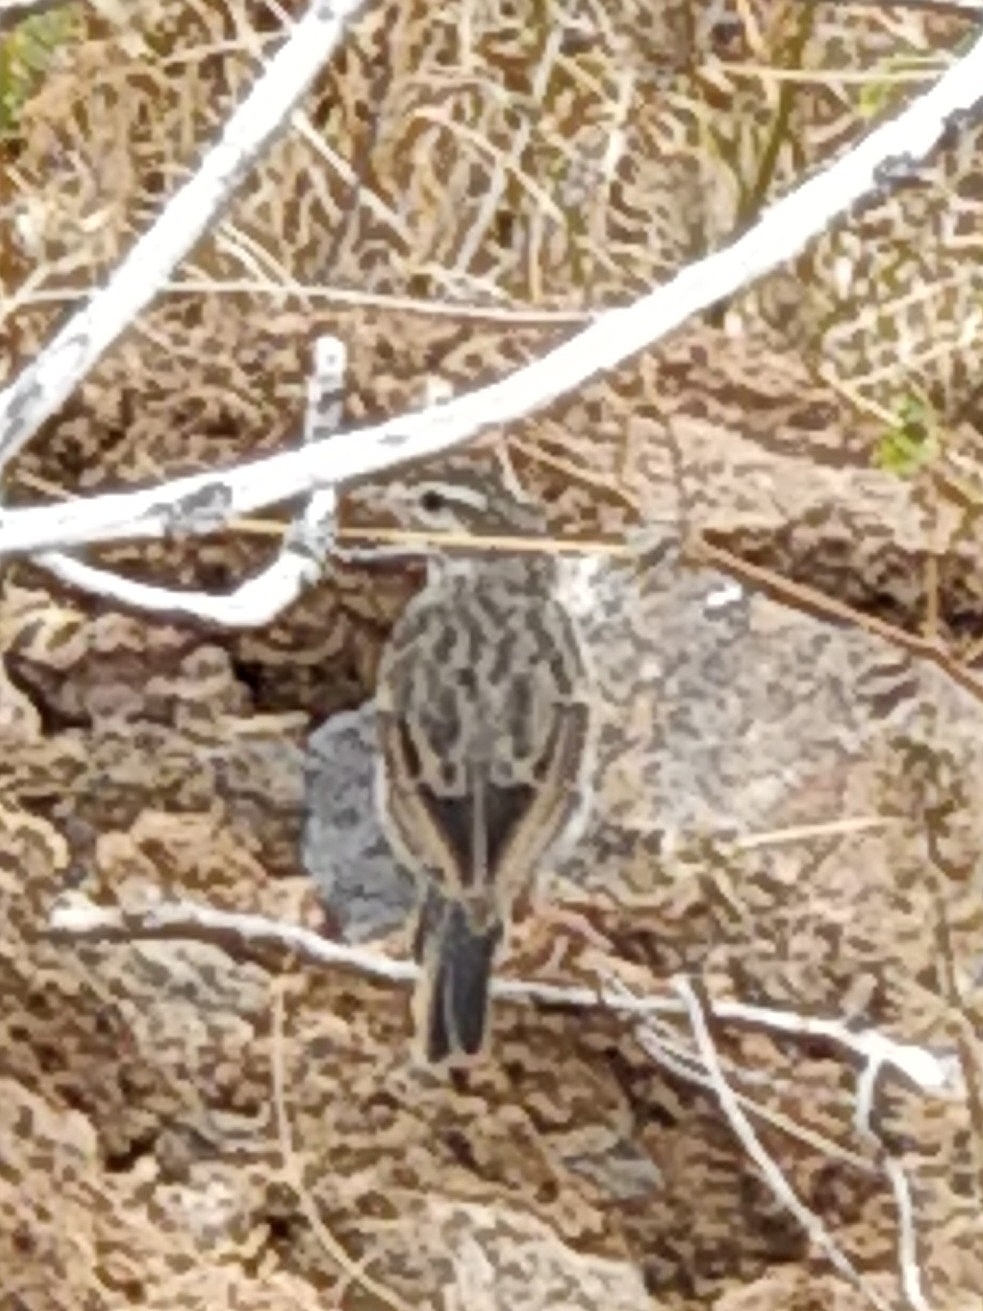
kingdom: Animalia
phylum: Chordata
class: Aves
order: Passeriformes
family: Motacillidae
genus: Anthus
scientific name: Anthus berthelotii
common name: Berthelot's pipit
